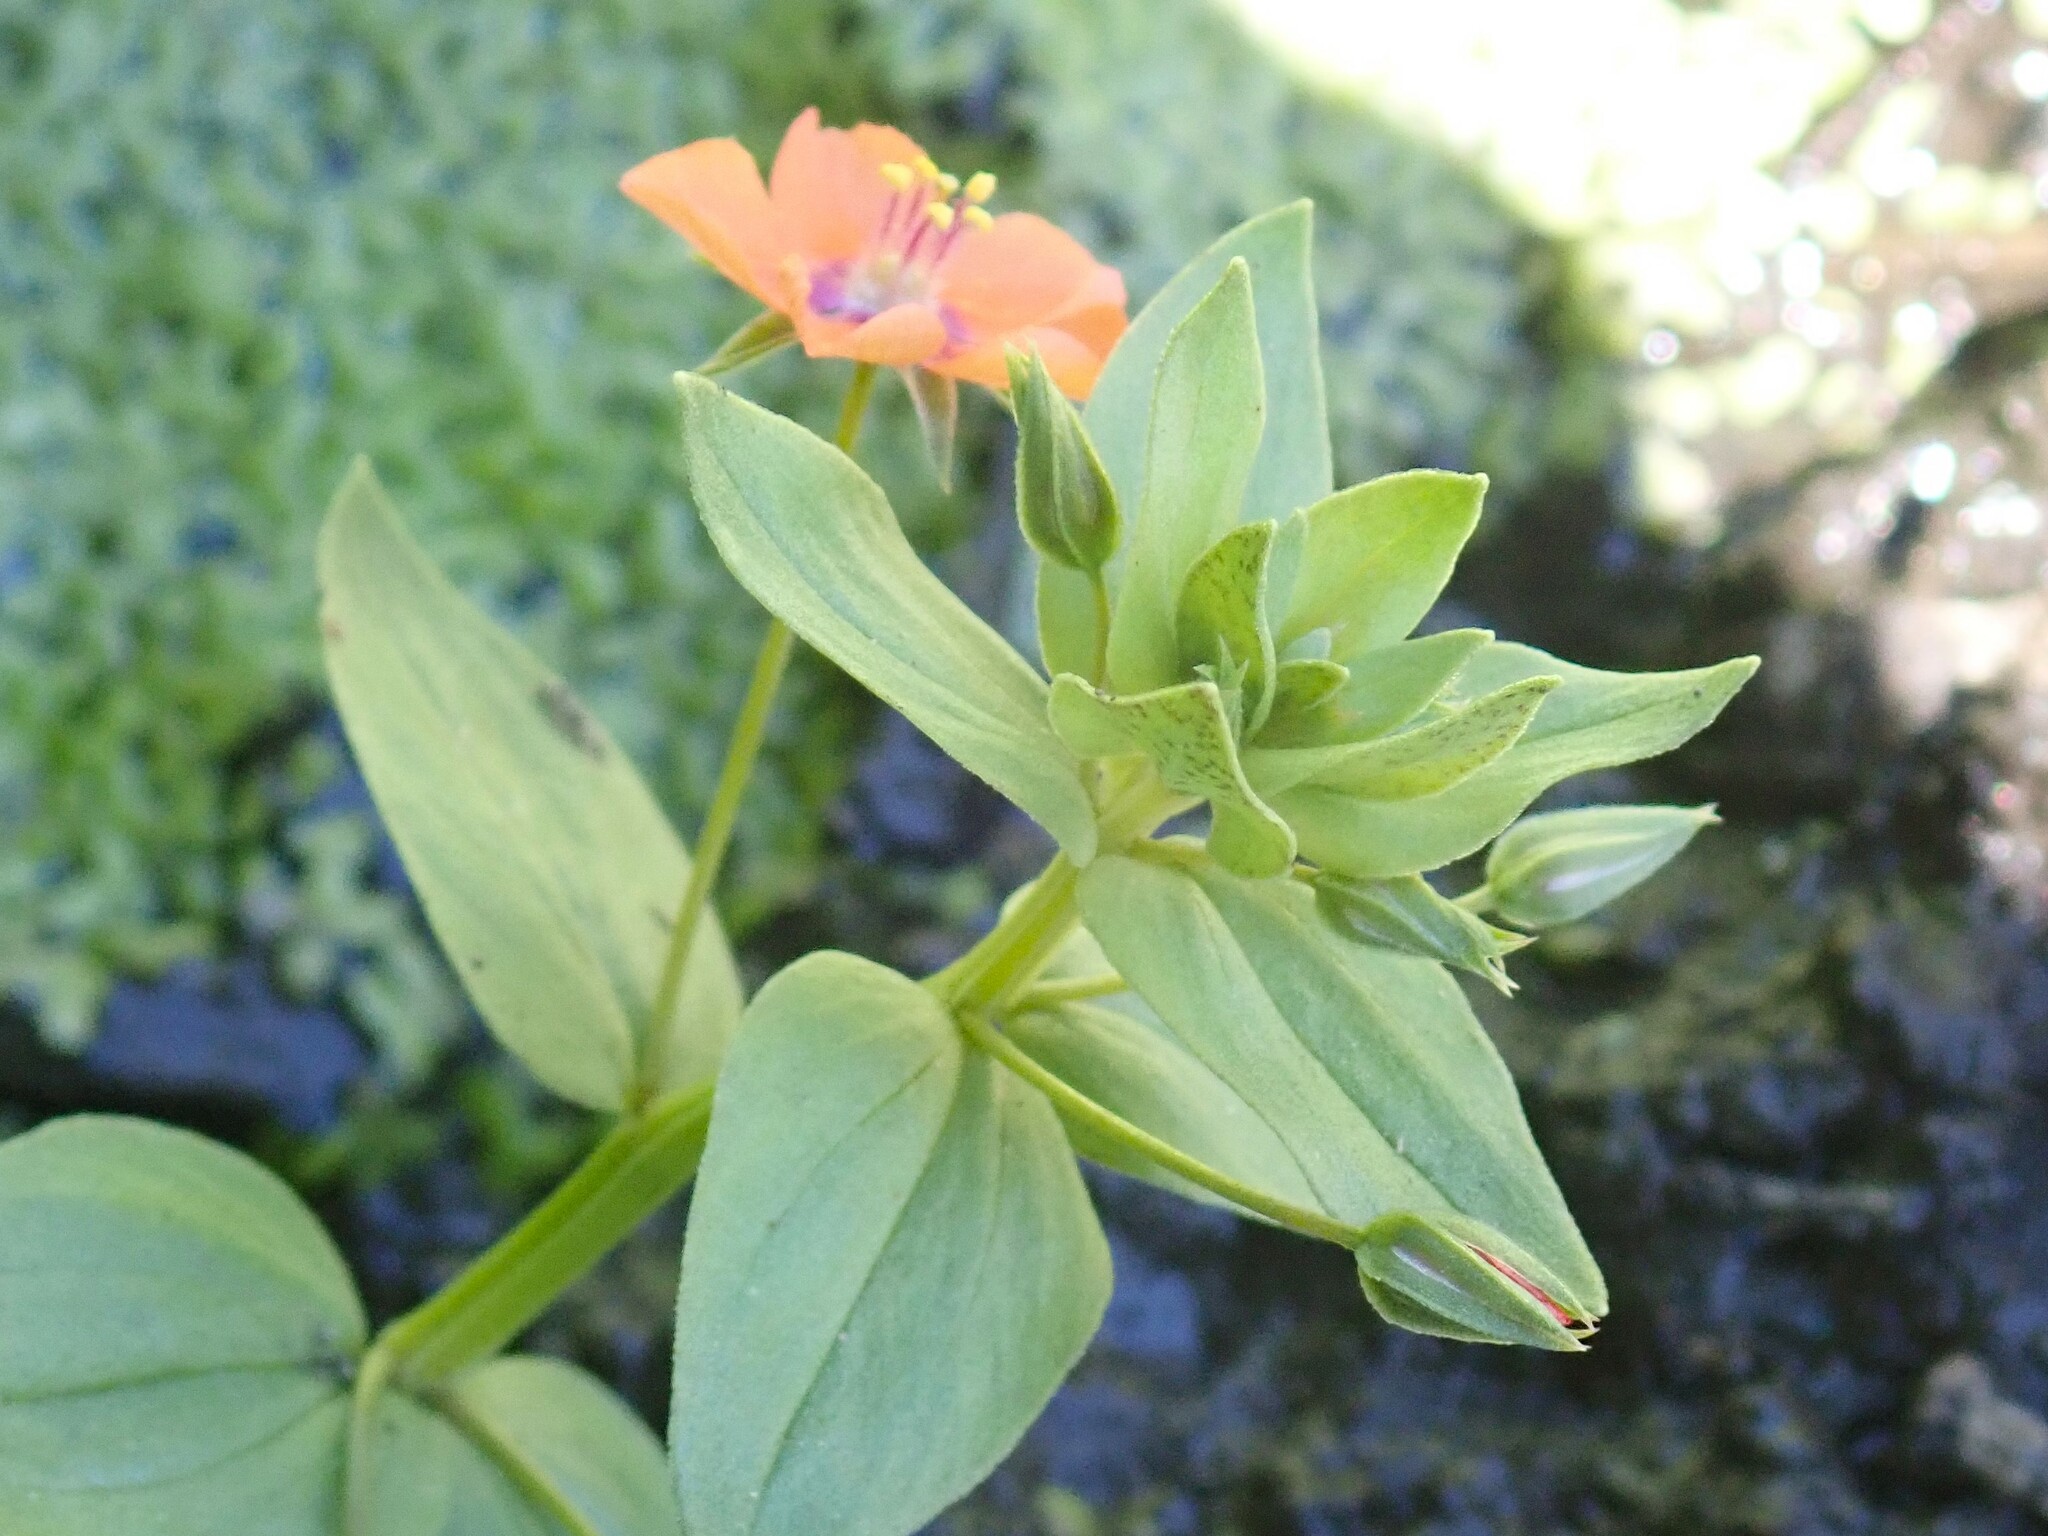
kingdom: Plantae
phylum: Tracheophyta
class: Magnoliopsida
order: Ericales
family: Primulaceae
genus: Lysimachia
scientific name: Lysimachia arvensis
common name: Scarlet pimpernel
